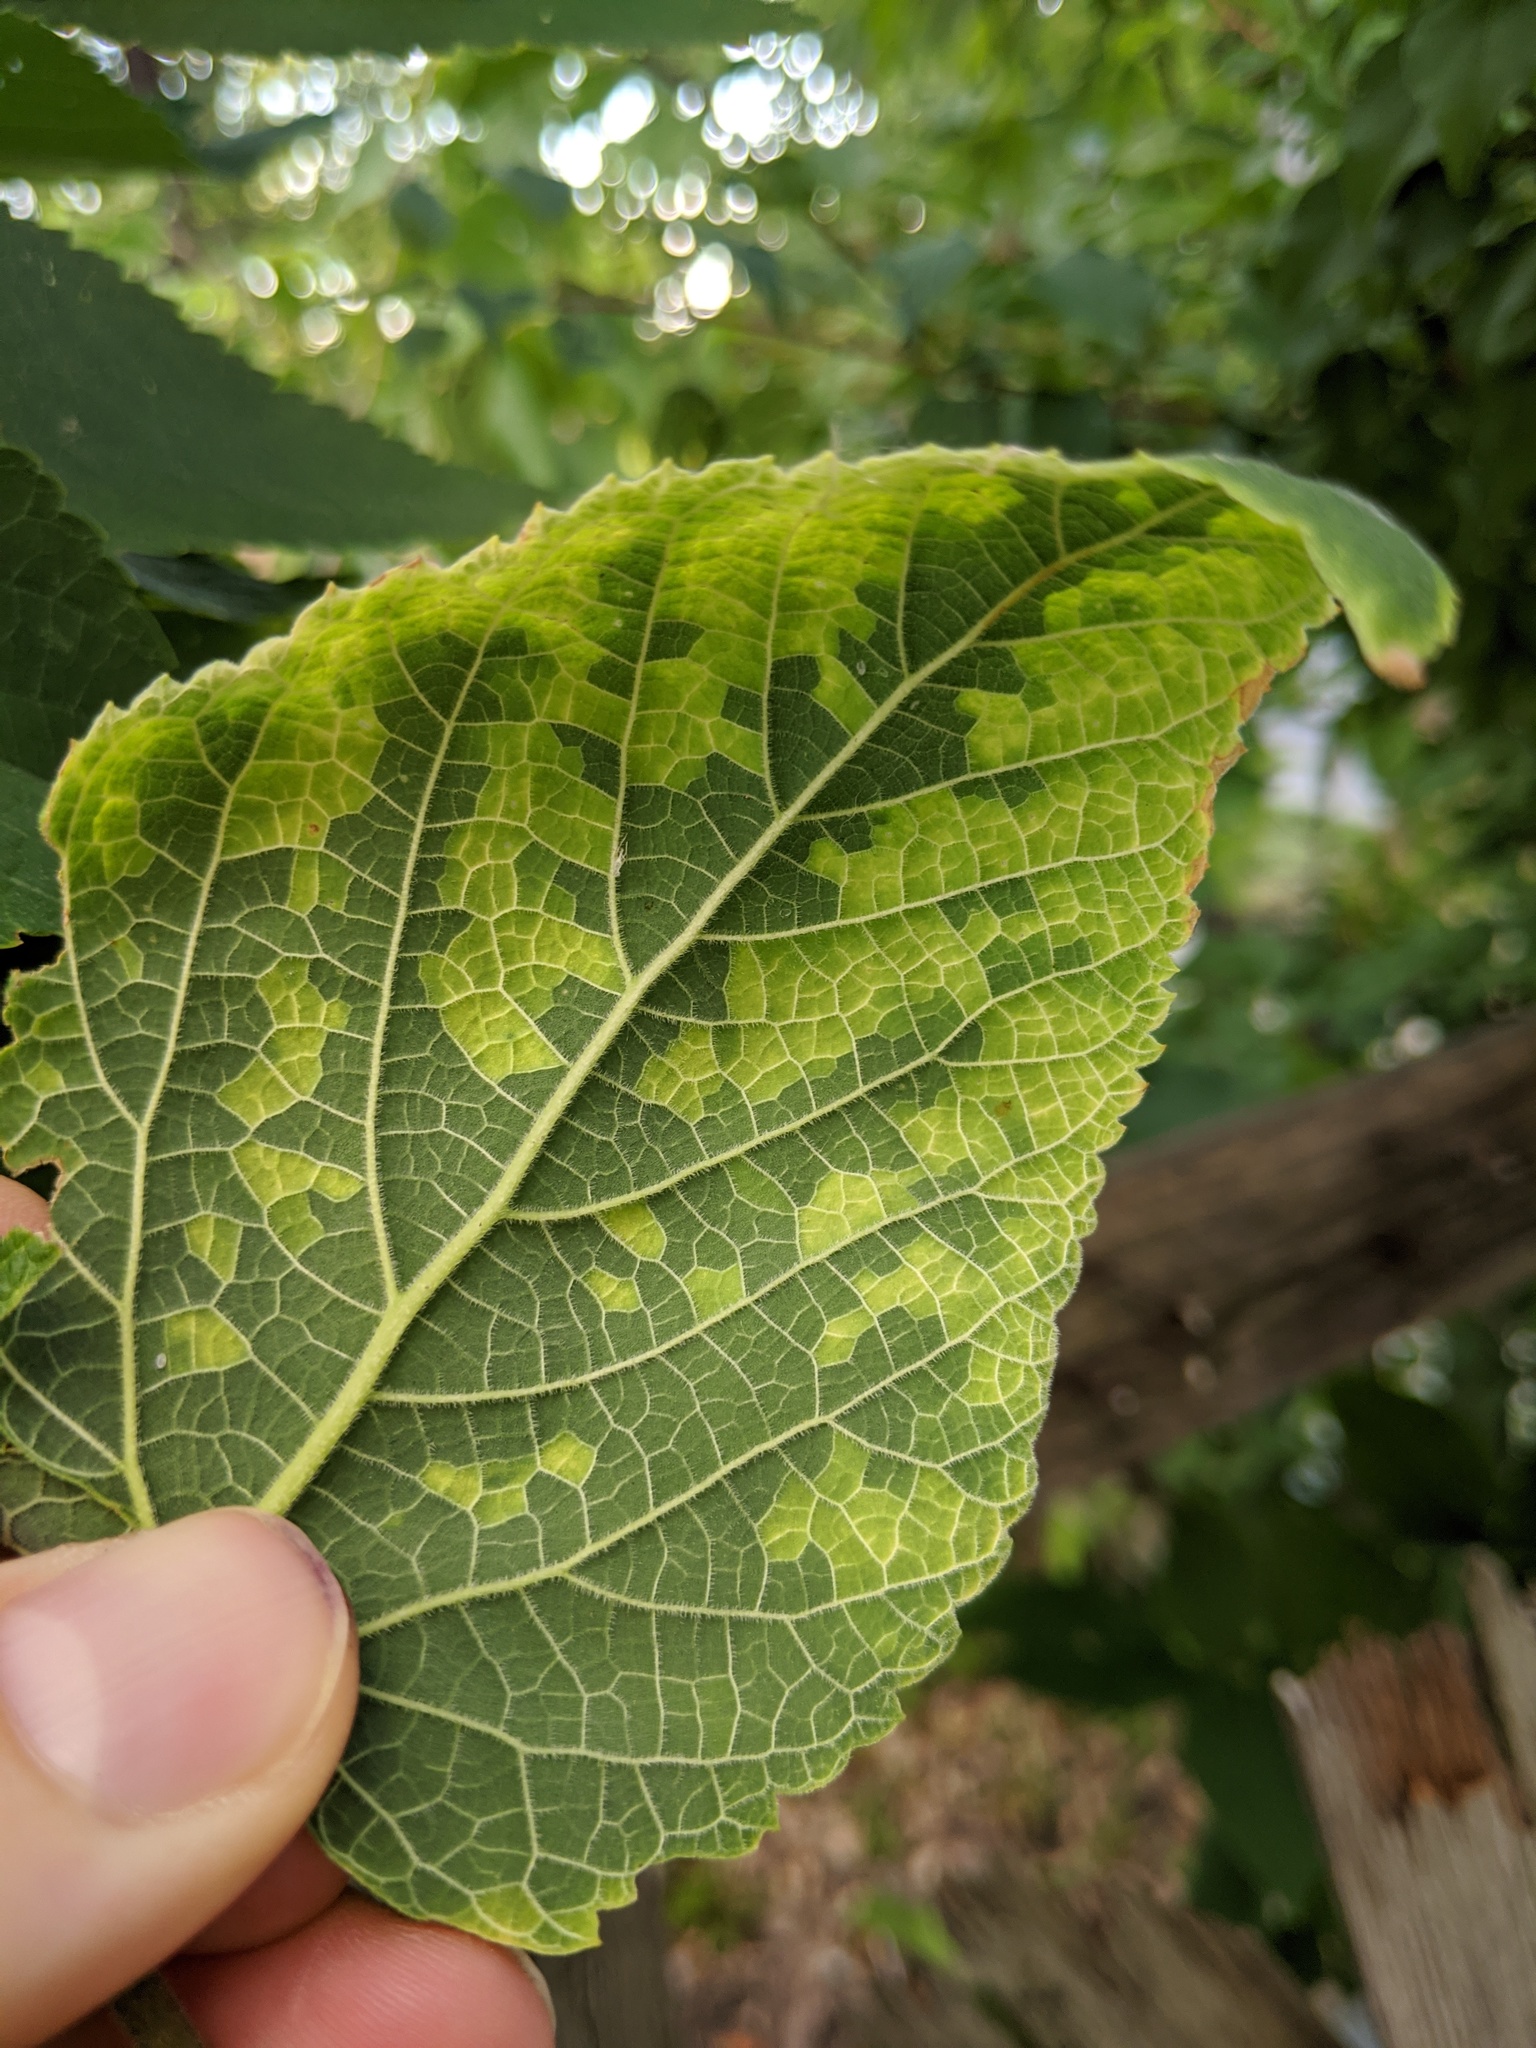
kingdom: Viruses
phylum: Kitrinoviricota
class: Alsuviricetes
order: Martellivirales
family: Closteroviridae
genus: Ampelovirus
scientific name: Ampelovirus
